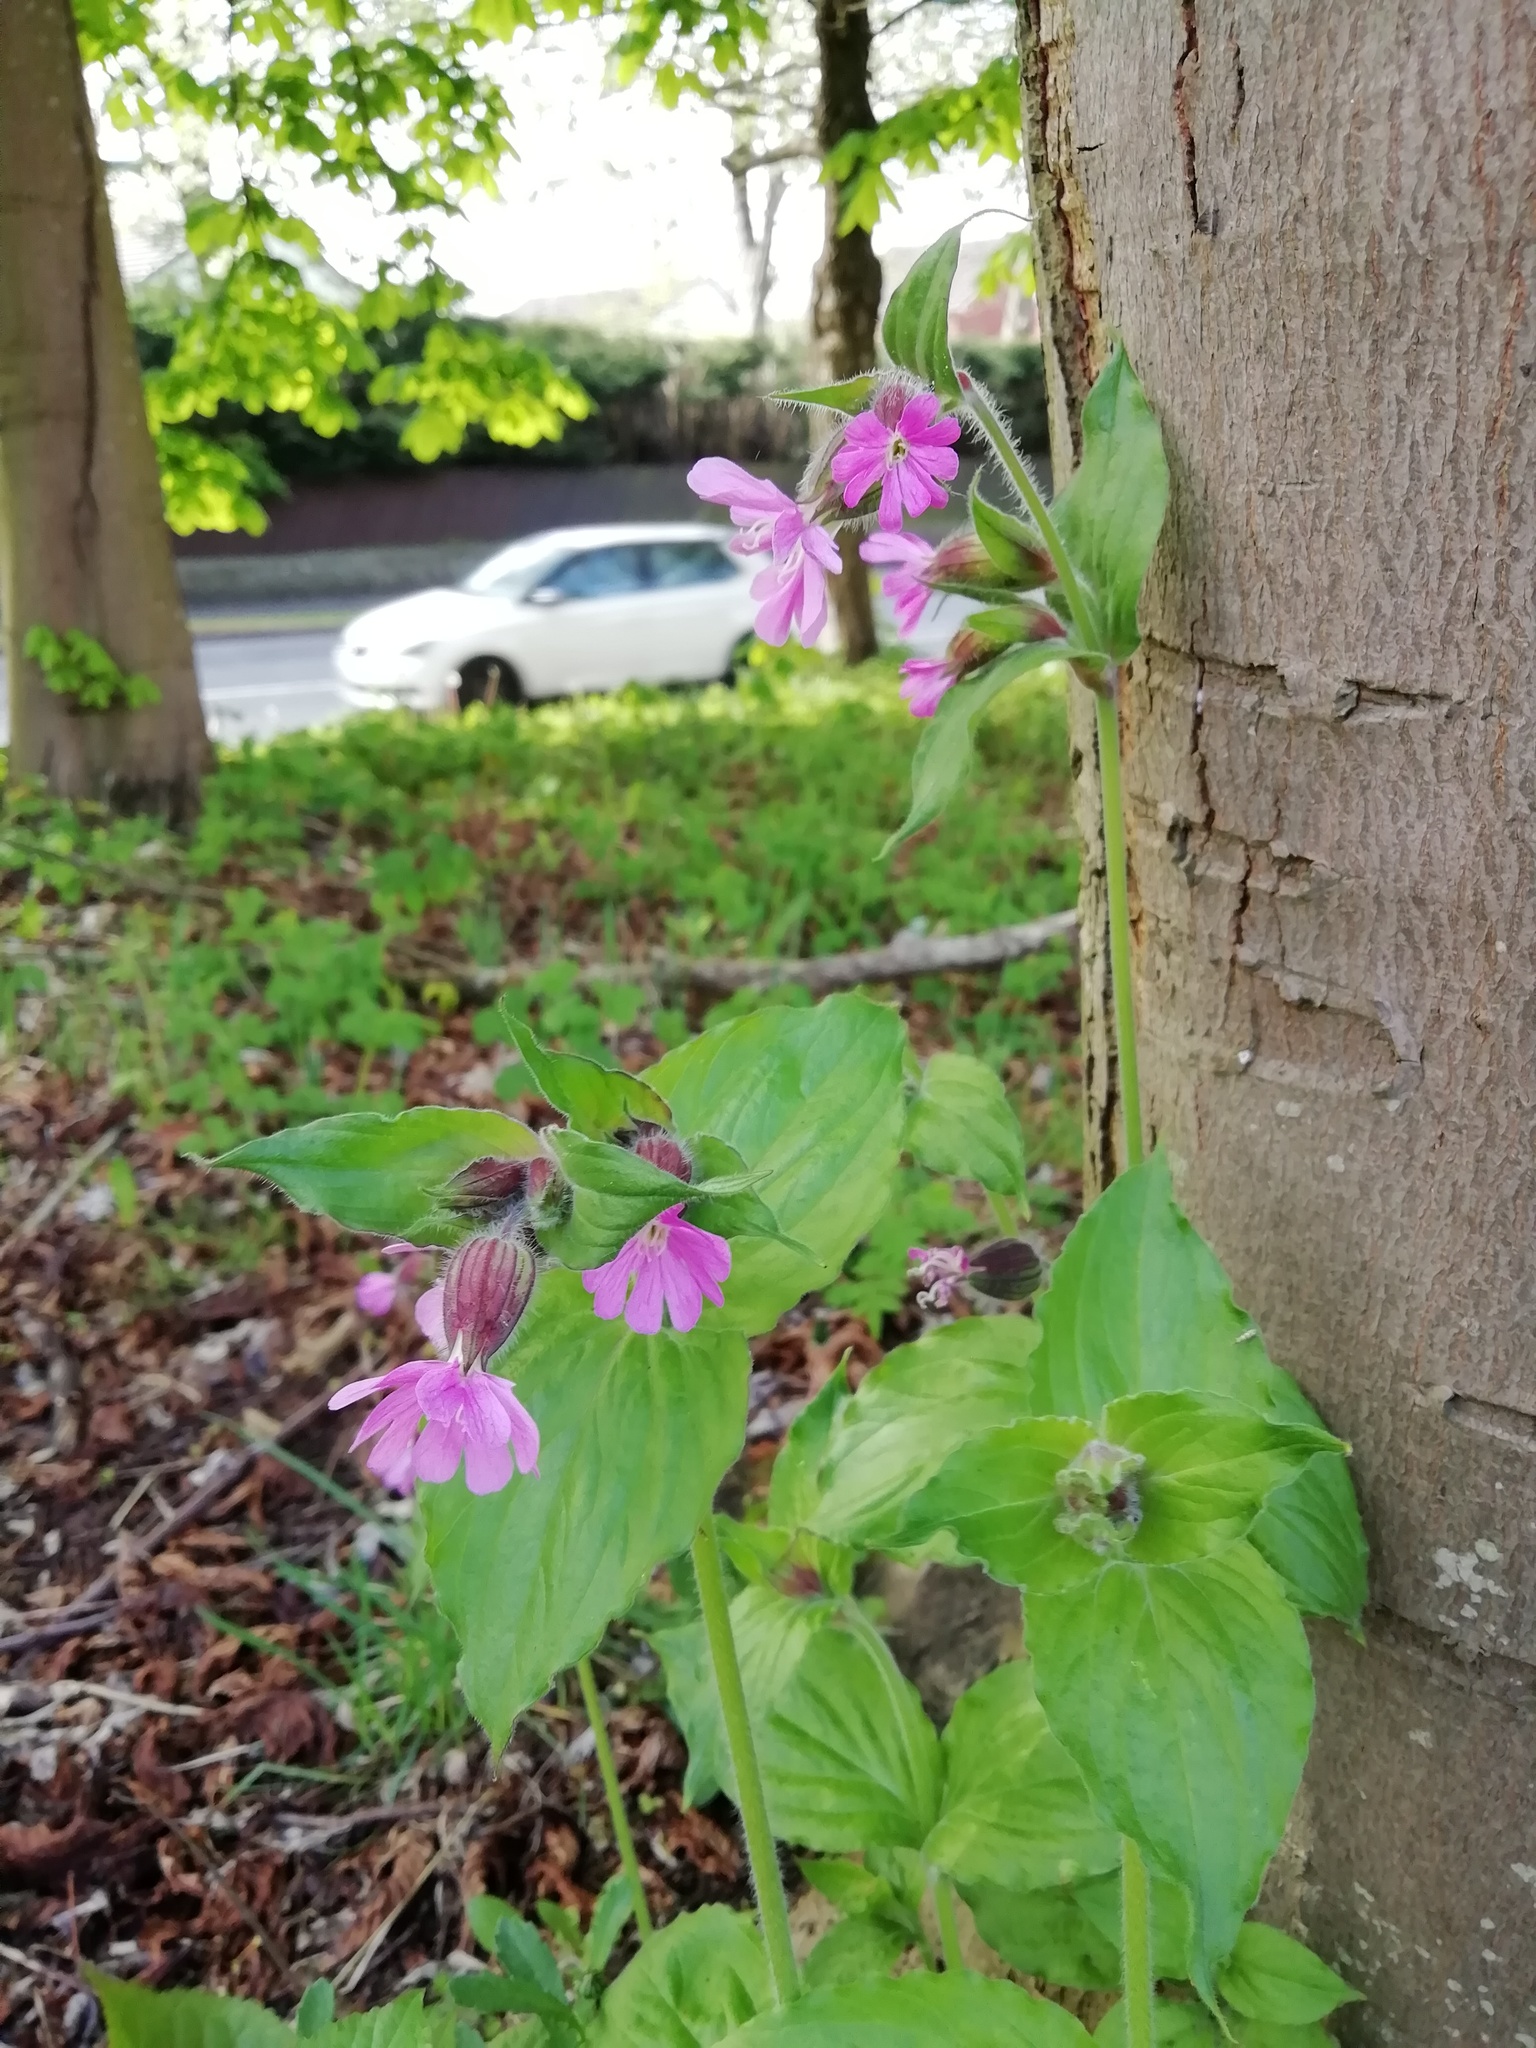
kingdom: Plantae
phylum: Tracheophyta
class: Magnoliopsida
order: Caryophyllales
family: Caryophyllaceae
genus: Silene
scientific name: Silene dioica
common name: Red campion
